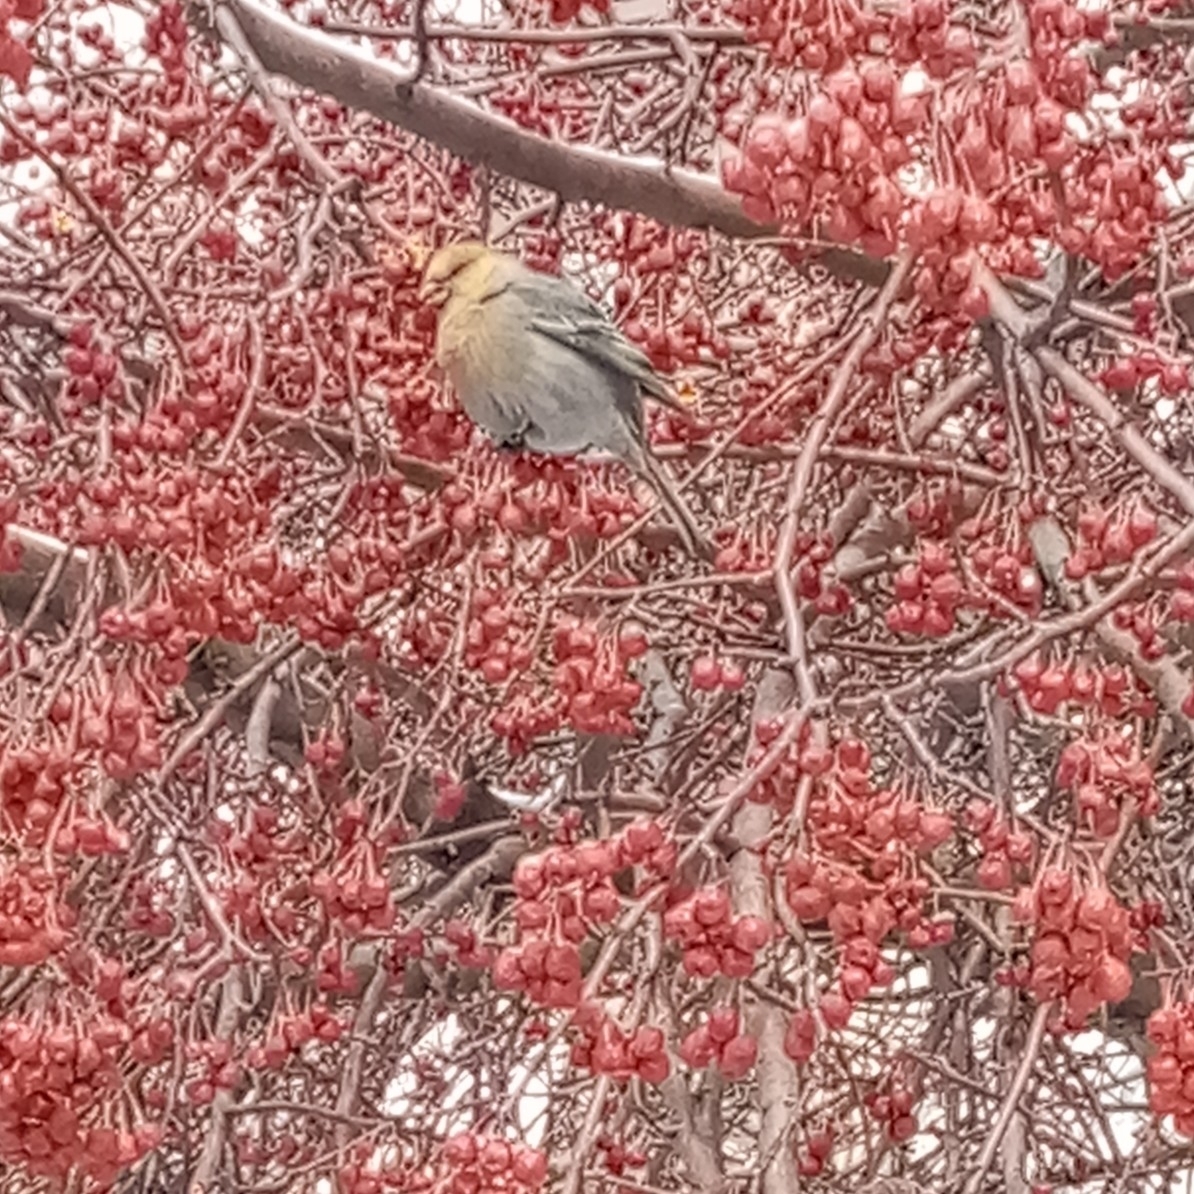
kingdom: Animalia
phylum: Chordata
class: Aves
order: Passeriformes
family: Fringillidae
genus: Pinicola
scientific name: Pinicola enucleator
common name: Pine grosbeak
